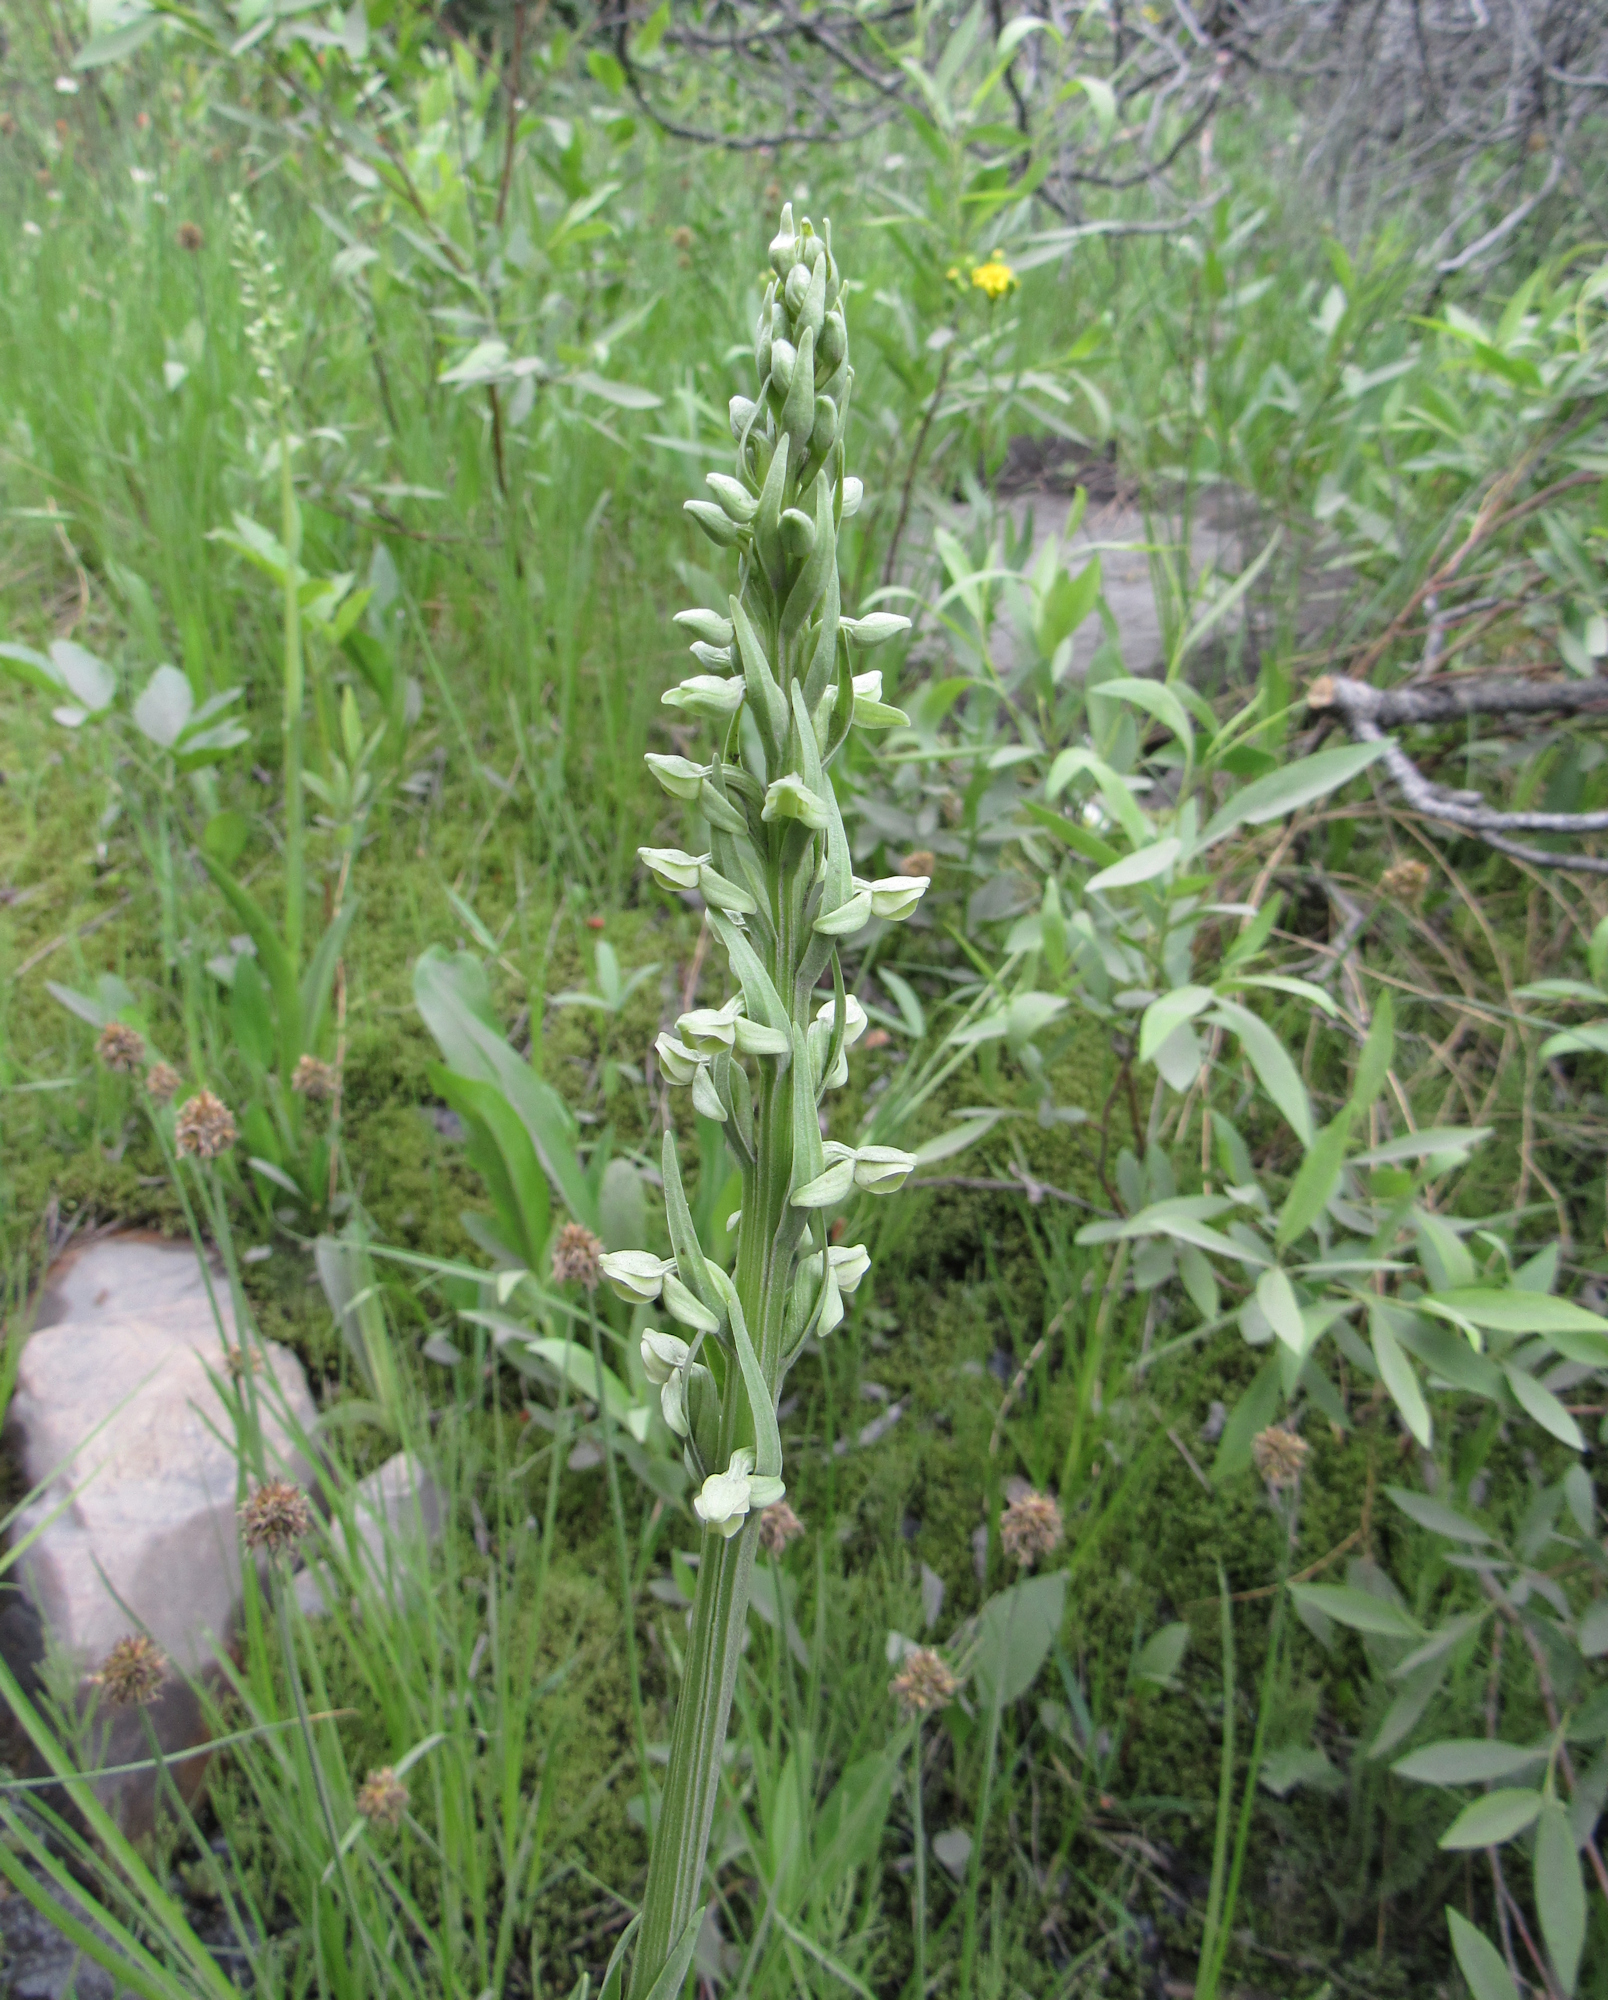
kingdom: Plantae
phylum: Tracheophyta
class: Liliopsida
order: Asparagales
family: Orchidaceae
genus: Platanthera
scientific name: Platanthera huronensis
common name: Fragrant green orchid
